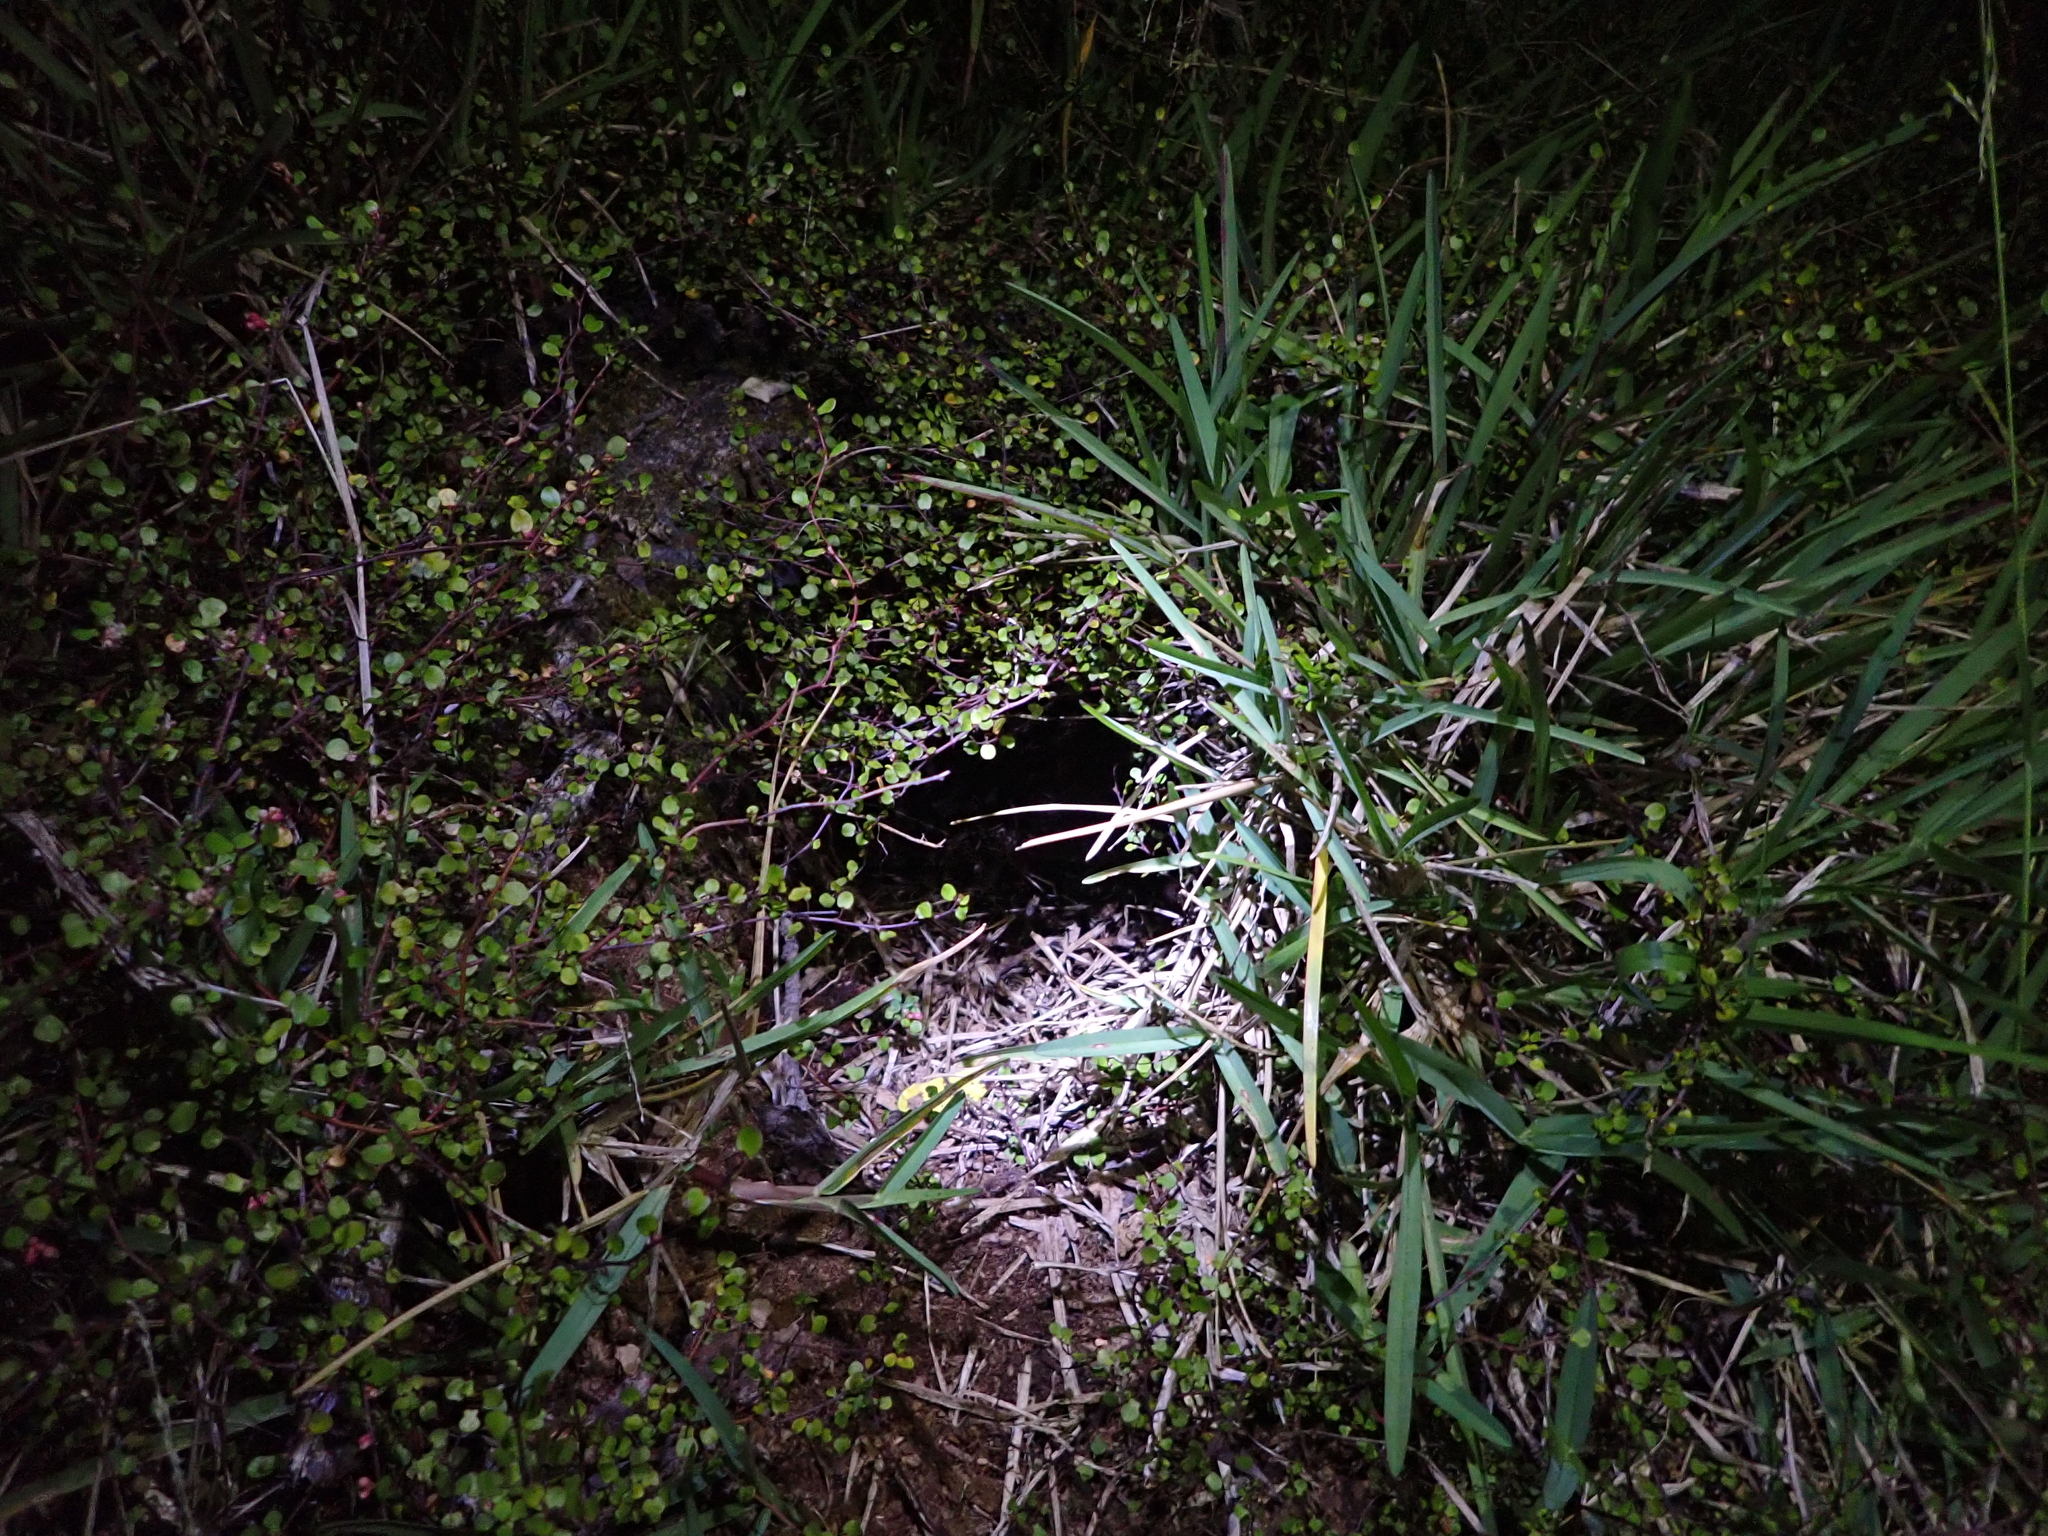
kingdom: Animalia
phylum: Chordata
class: Aves
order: Apterygiformes
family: Apterygidae
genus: Apteryx
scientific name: Apteryx mantelli
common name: North island brown kiwi
